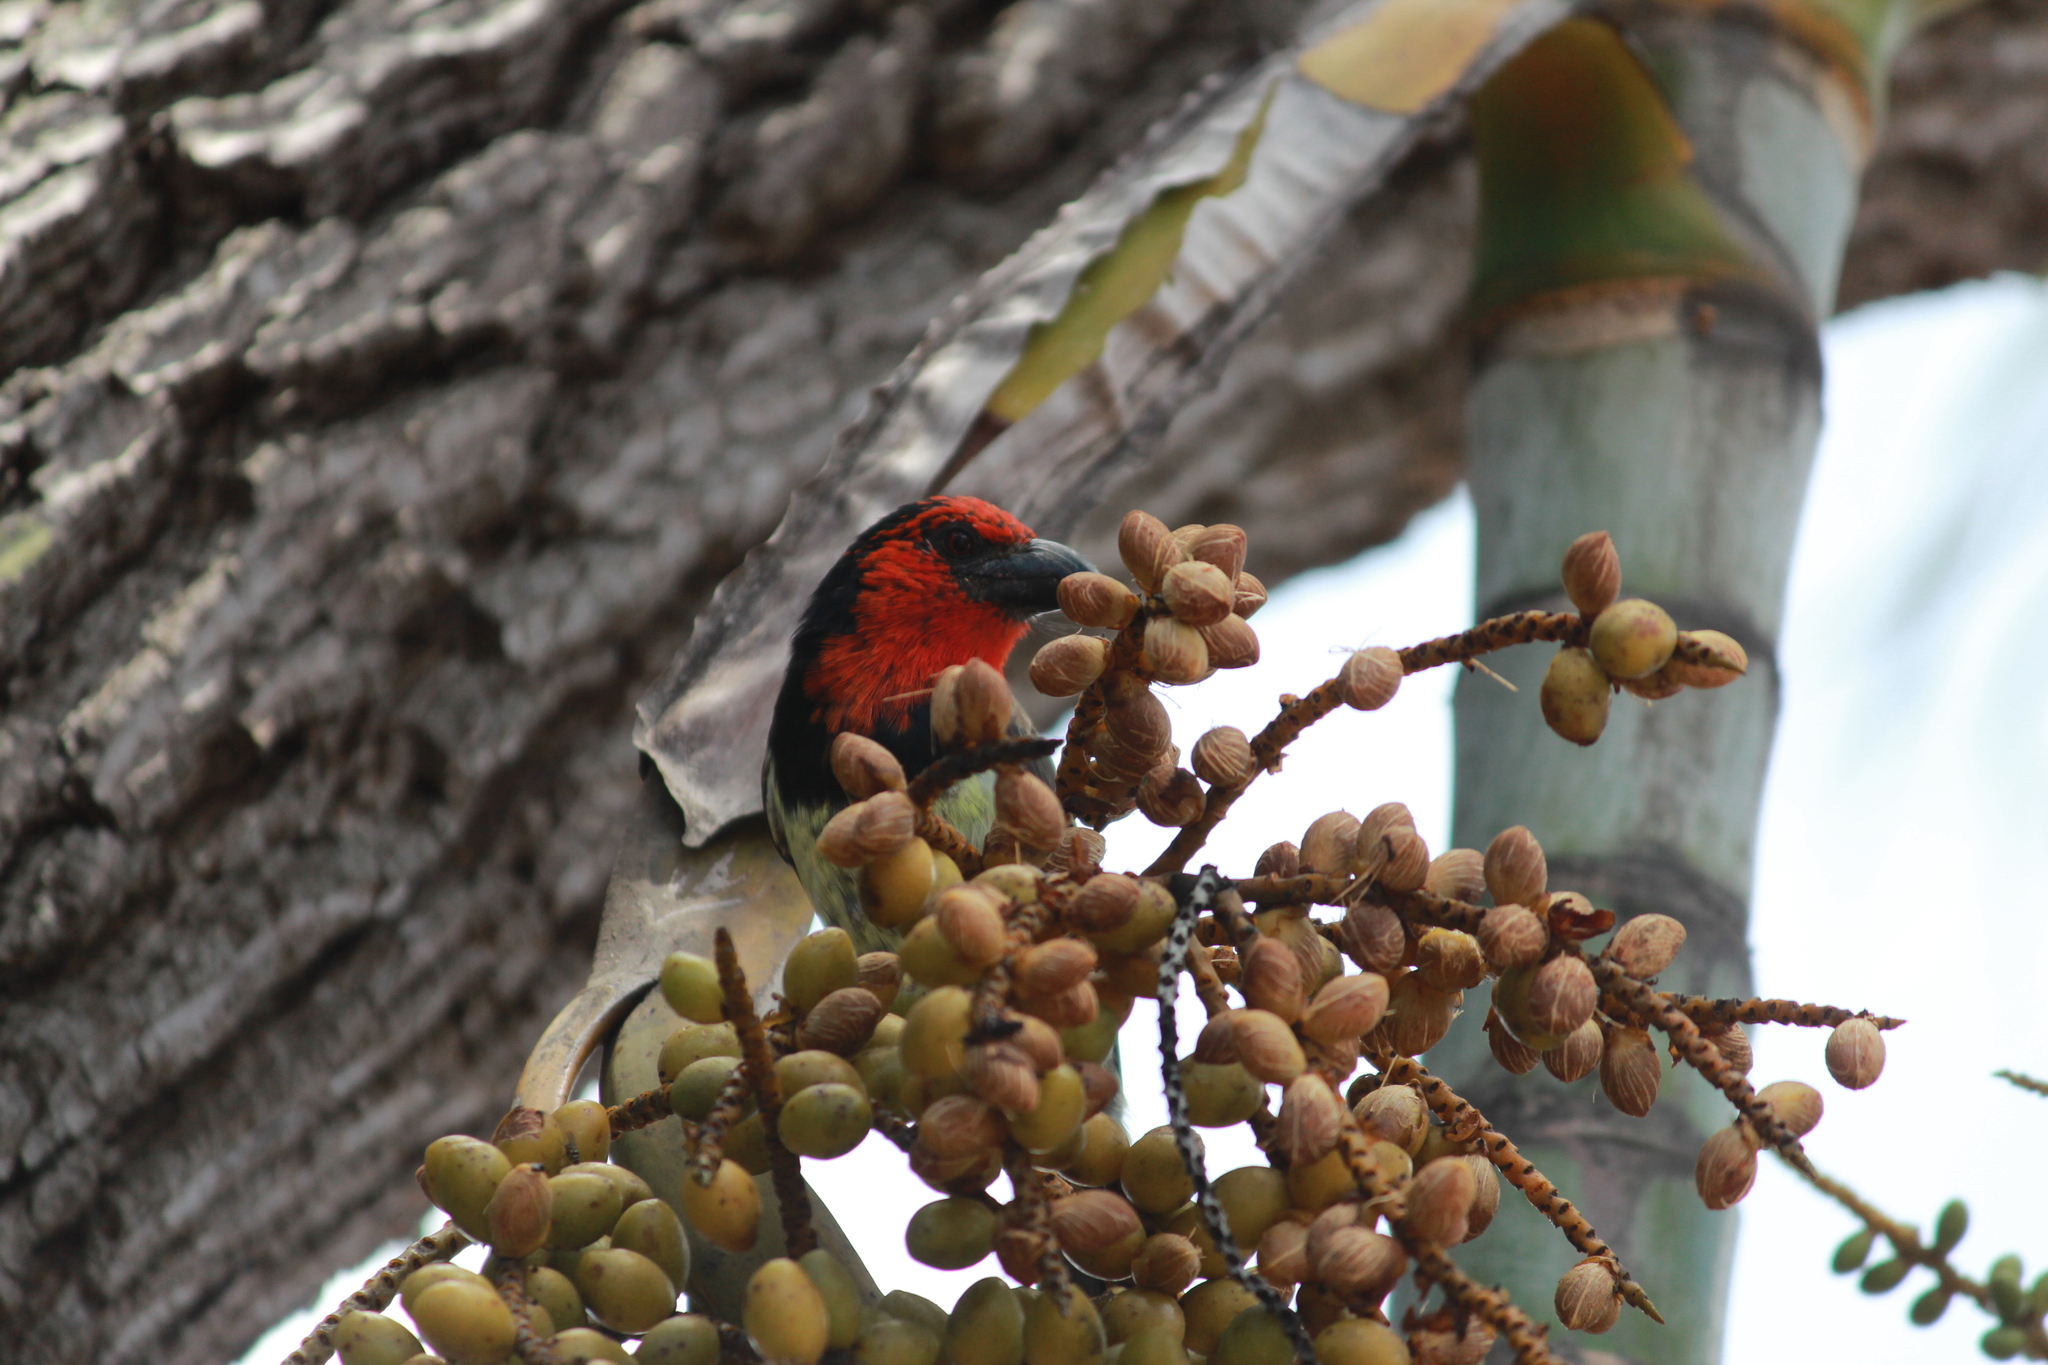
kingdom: Animalia
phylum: Chordata
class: Aves
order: Piciformes
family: Lybiidae
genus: Lybius
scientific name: Lybius torquatus
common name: Black-collared barbet
